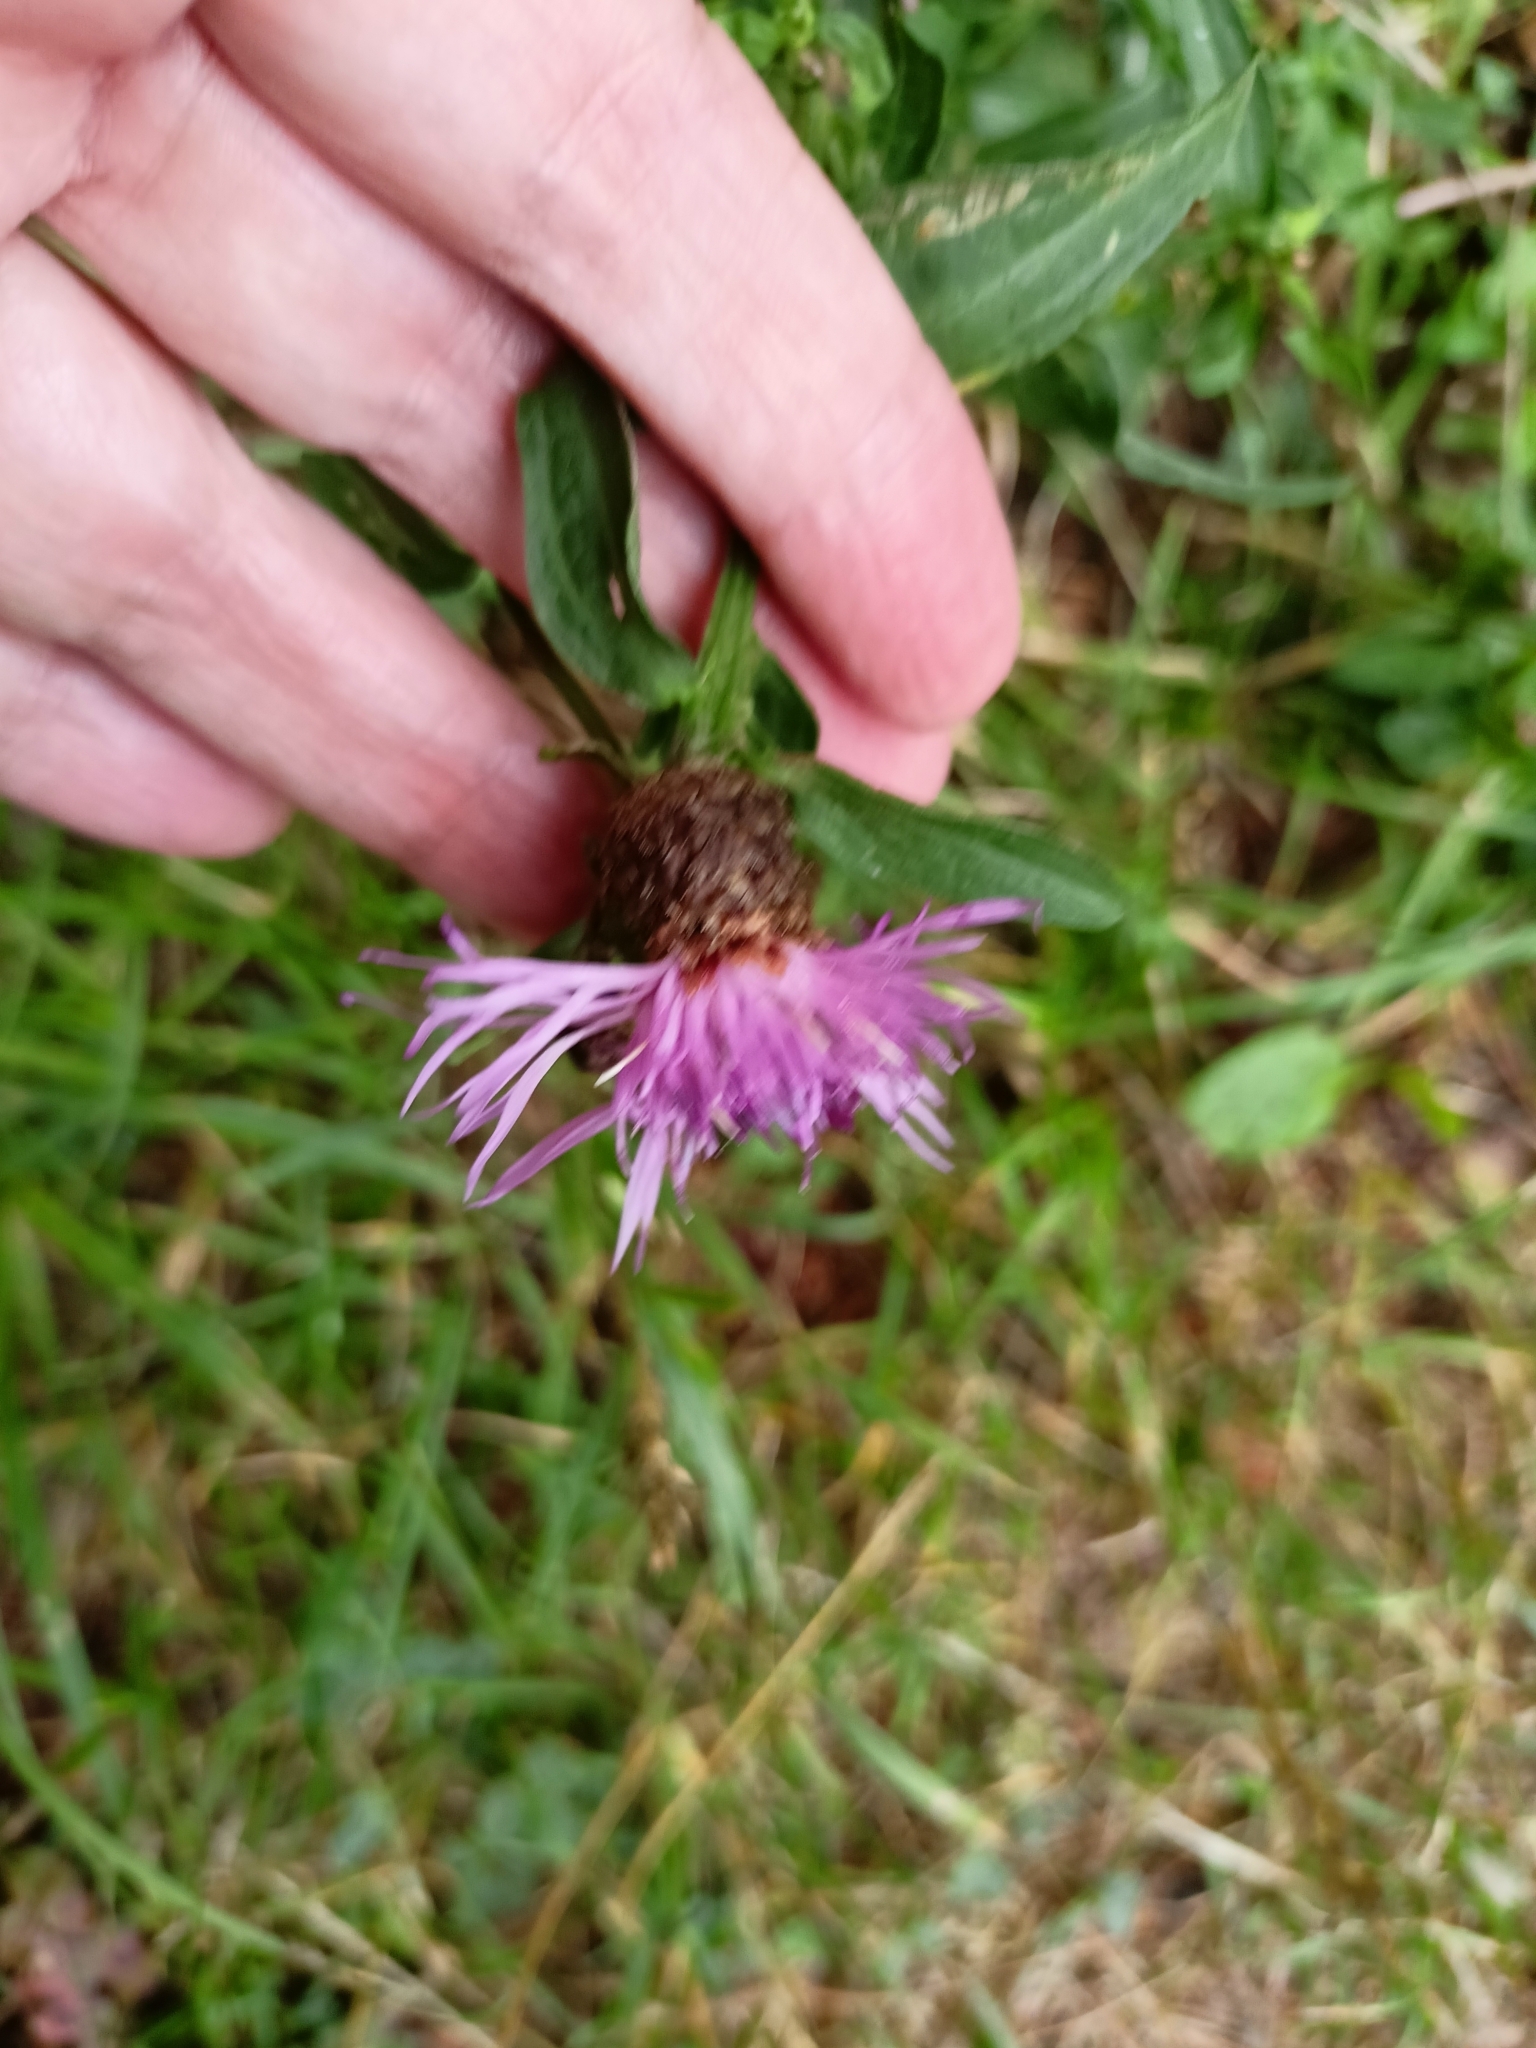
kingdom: Plantae
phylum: Tracheophyta
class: Magnoliopsida
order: Asterales
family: Asteraceae
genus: Centaurea
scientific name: Centaurea jacea
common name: Brown knapweed
